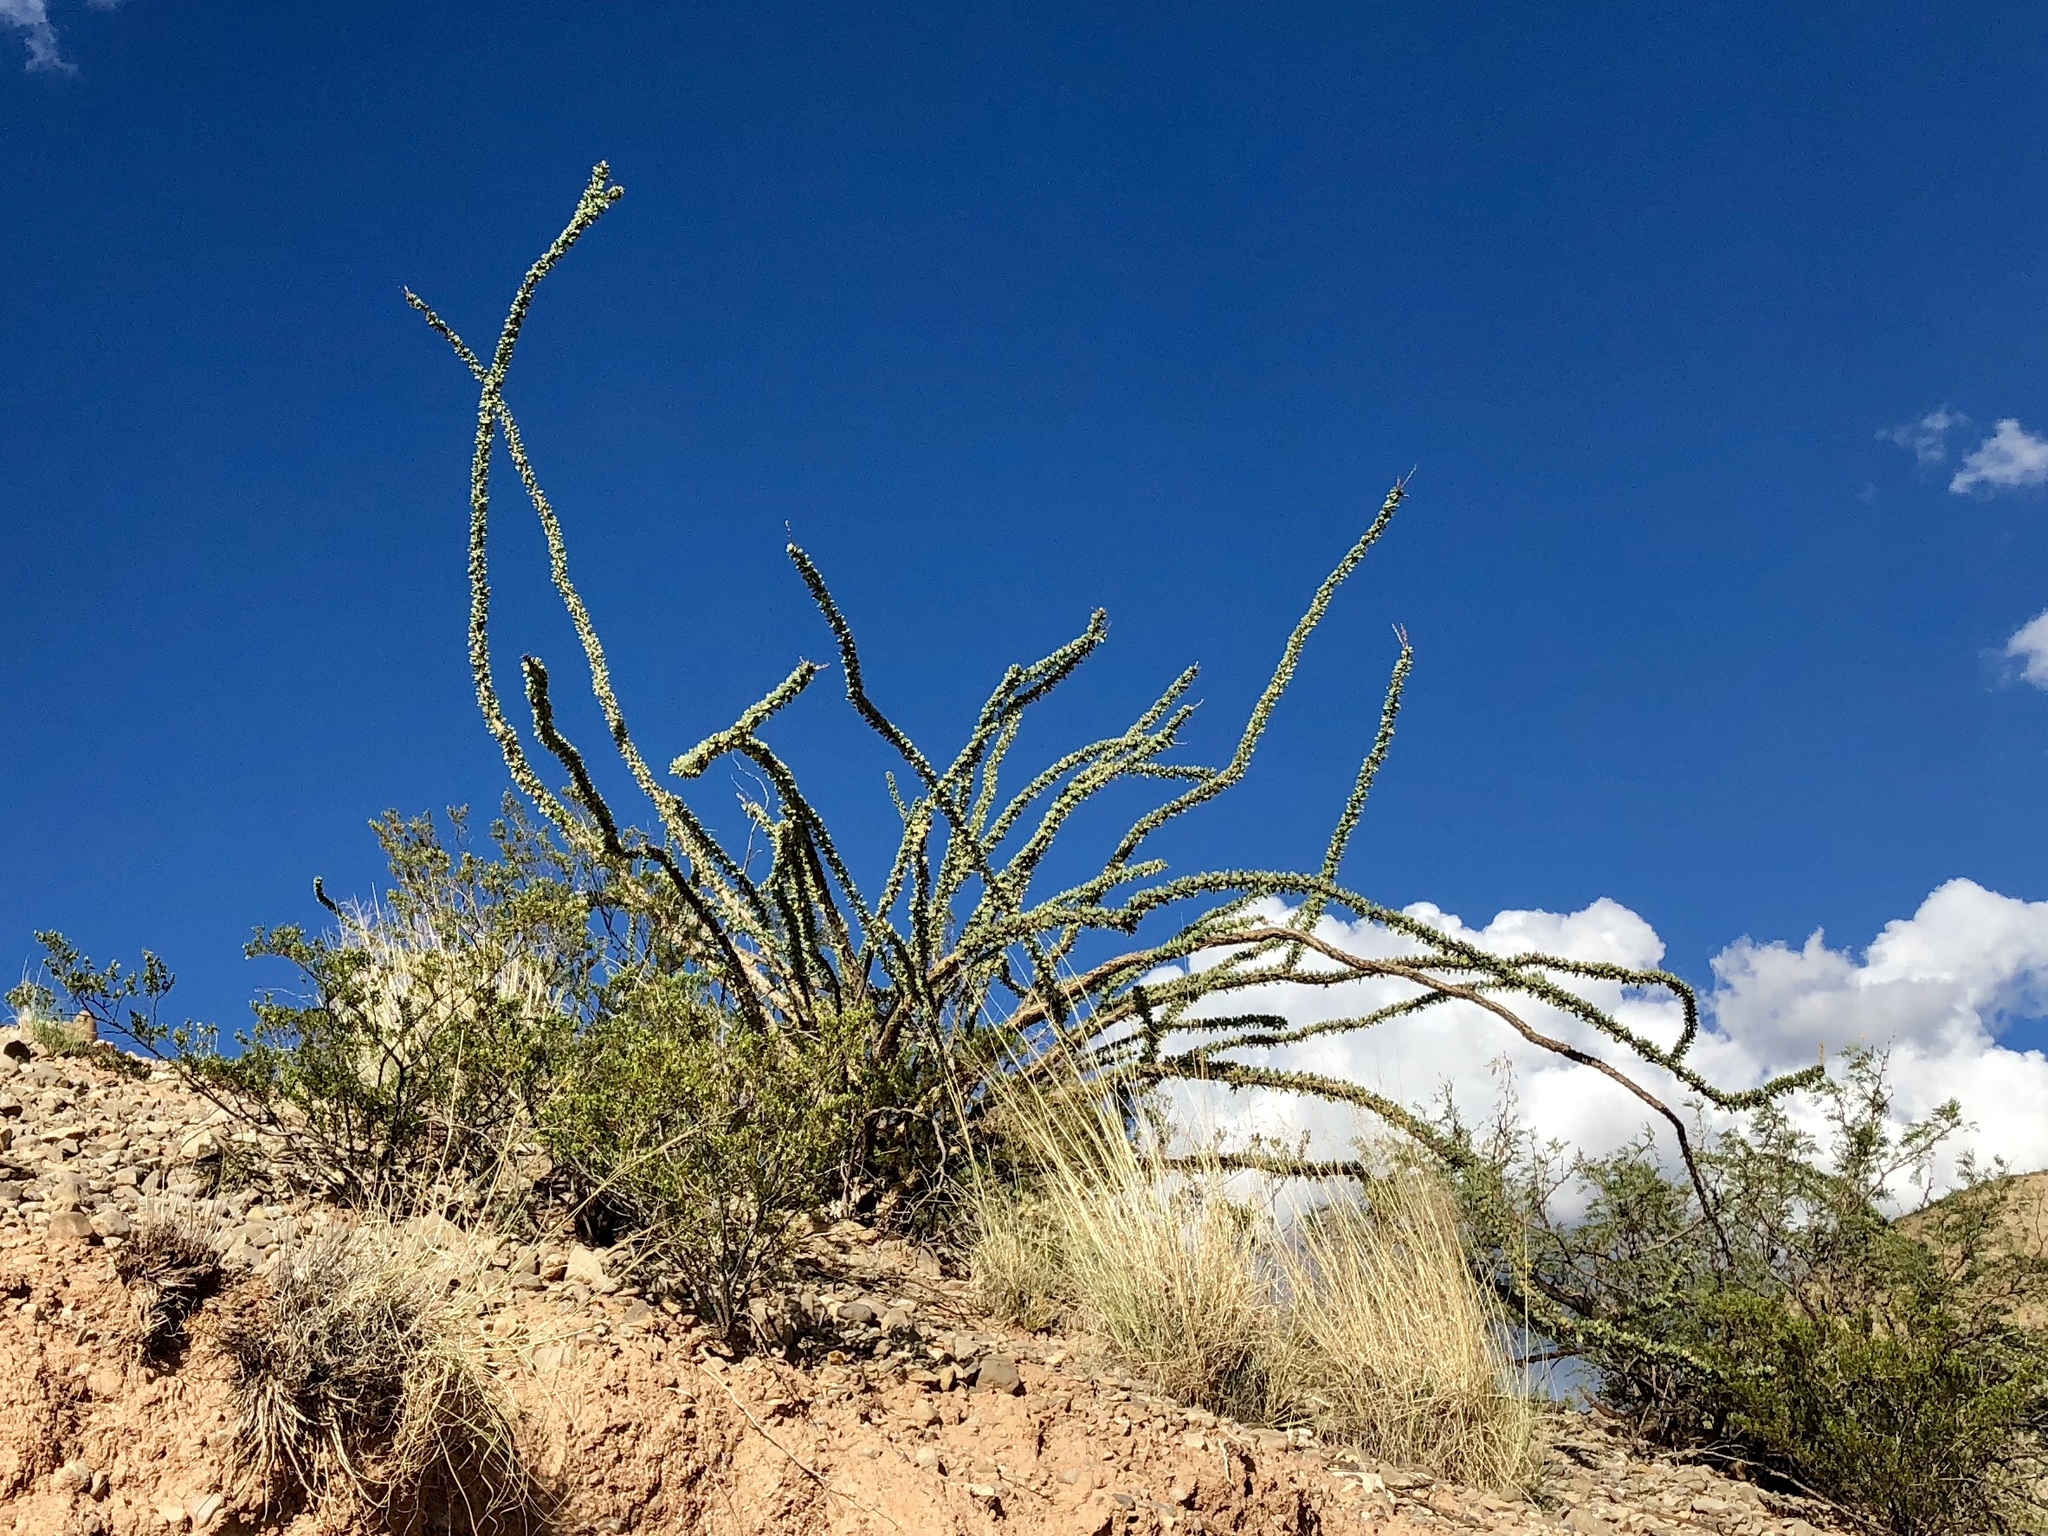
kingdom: Plantae
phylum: Tracheophyta
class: Magnoliopsida
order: Ericales
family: Fouquieriaceae
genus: Fouquieria
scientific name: Fouquieria splendens
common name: Vine-cactus
